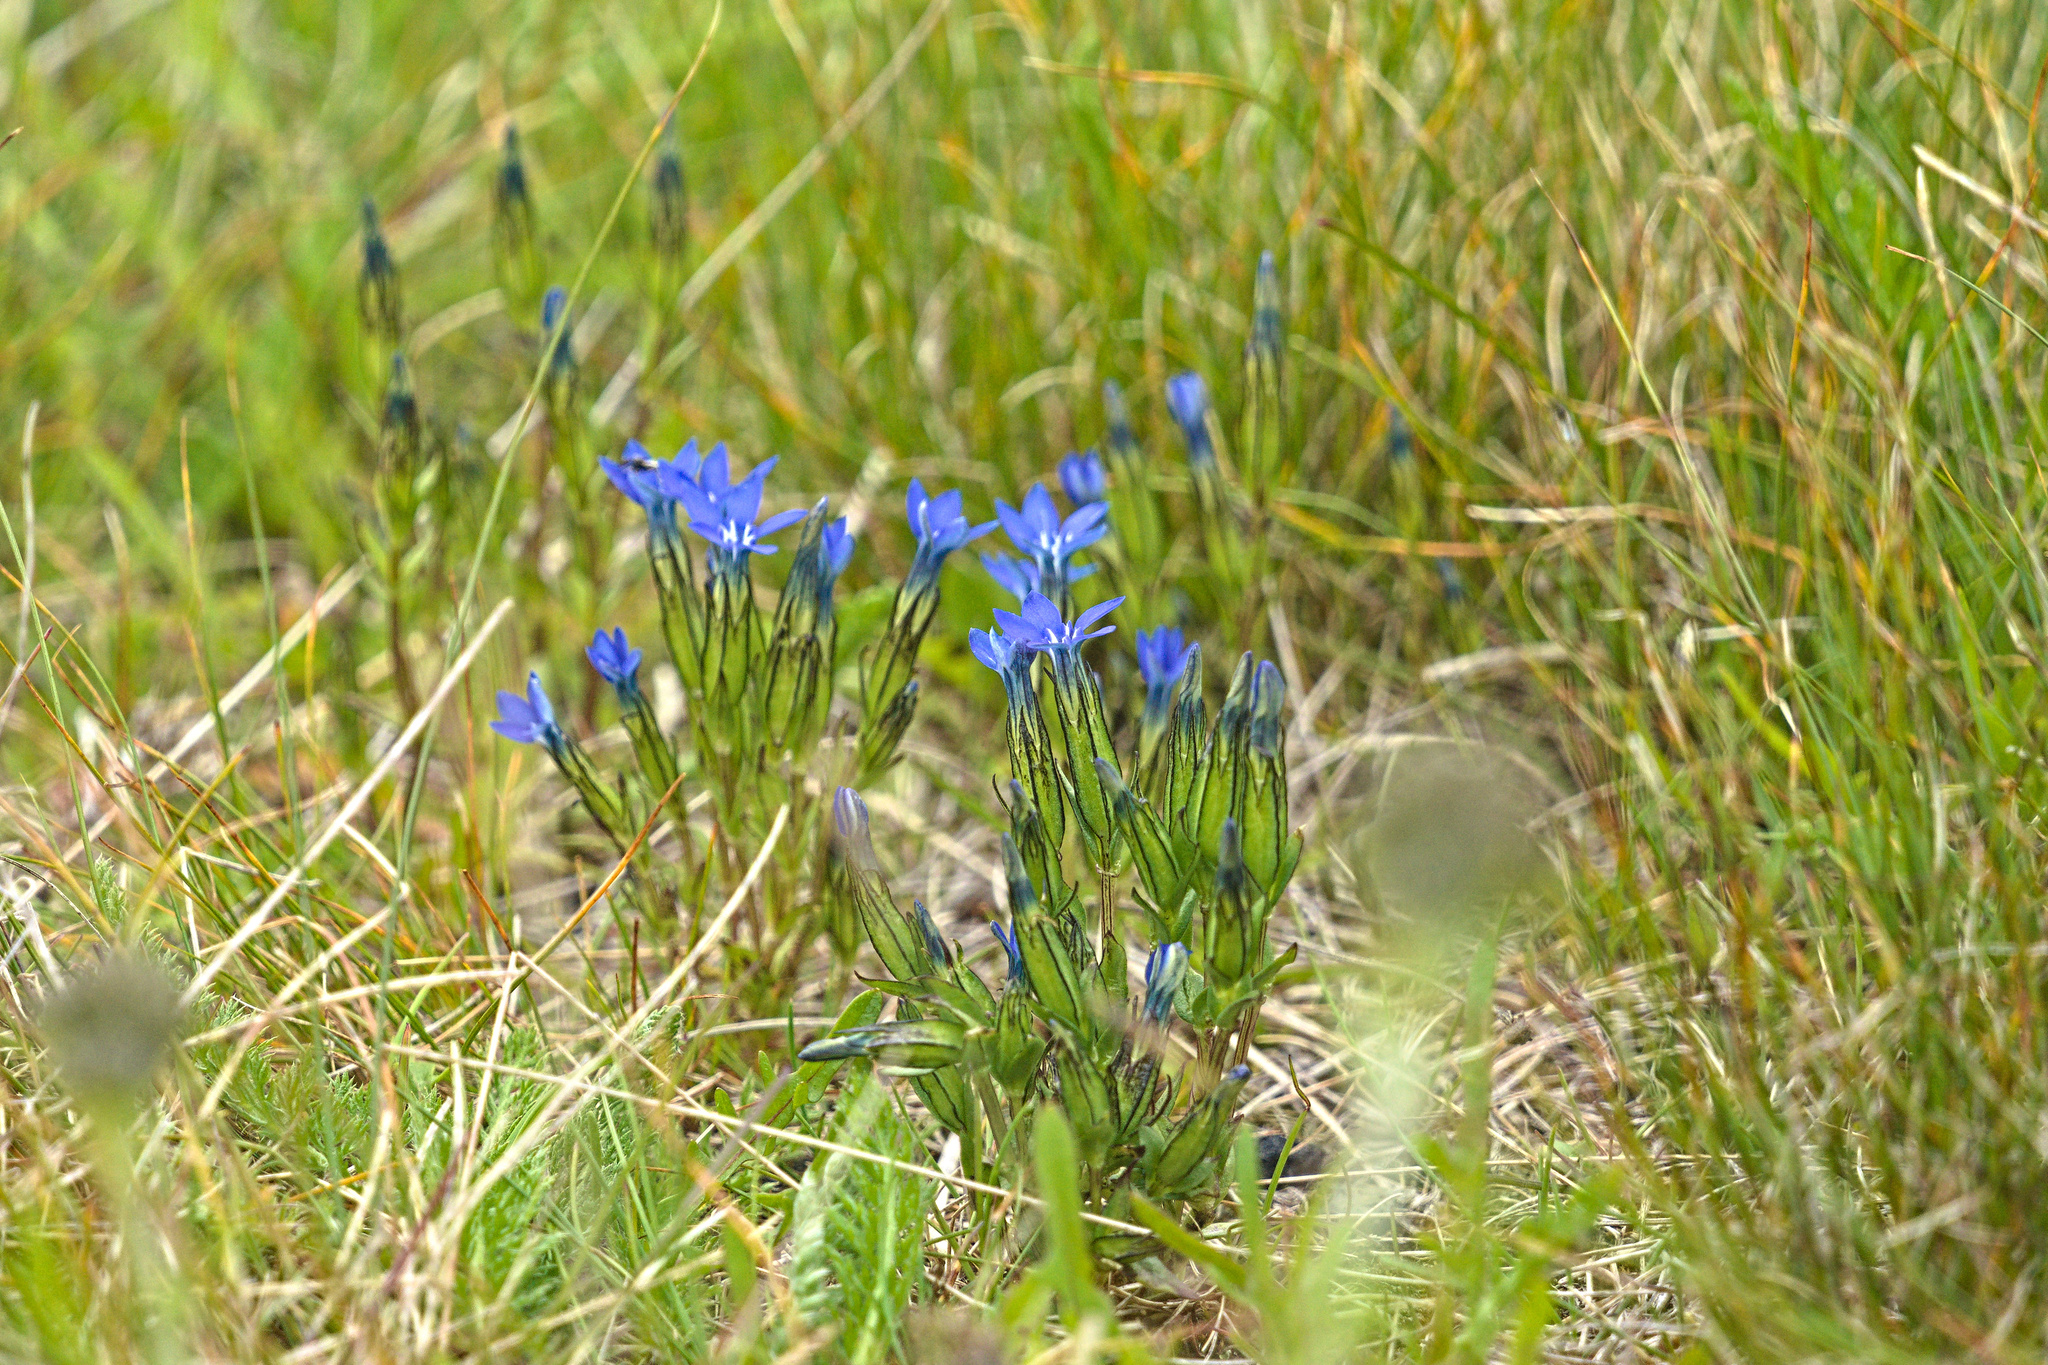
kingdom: Plantae
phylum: Tracheophyta
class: Magnoliopsida
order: Gentianales
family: Gentianaceae
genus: Gentiana
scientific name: Gentiana nivalis
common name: Alpine gentian
